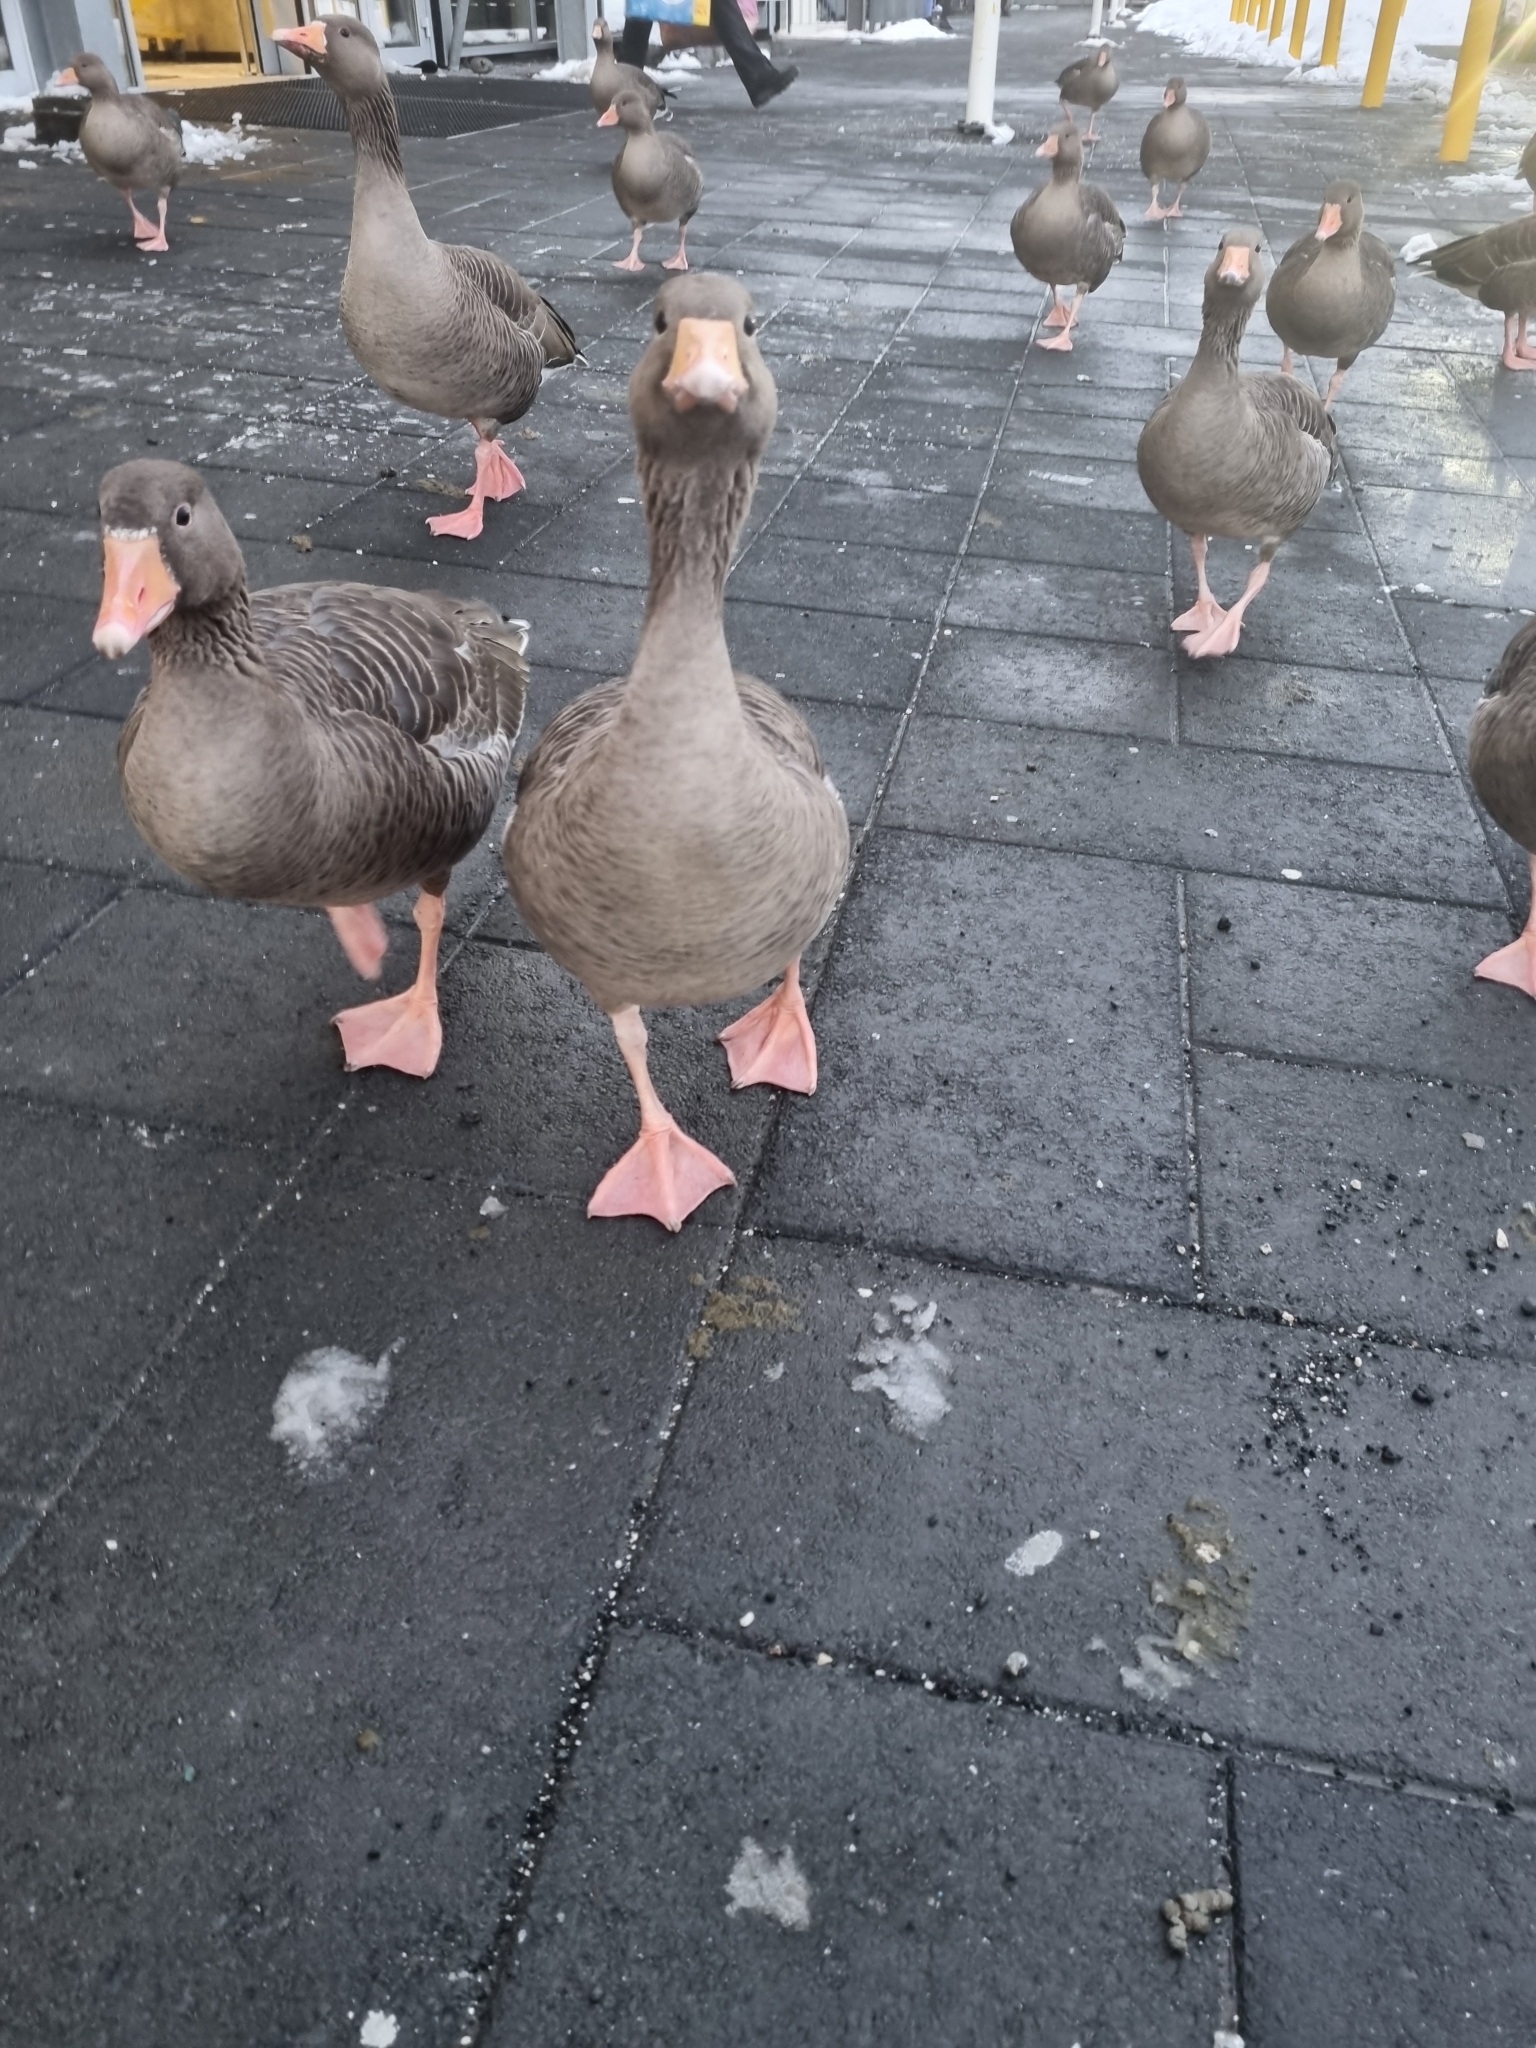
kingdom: Animalia
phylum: Chordata
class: Aves
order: Anseriformes
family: Anatidae
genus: Anser
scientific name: Anser anser
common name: Greylag goose
